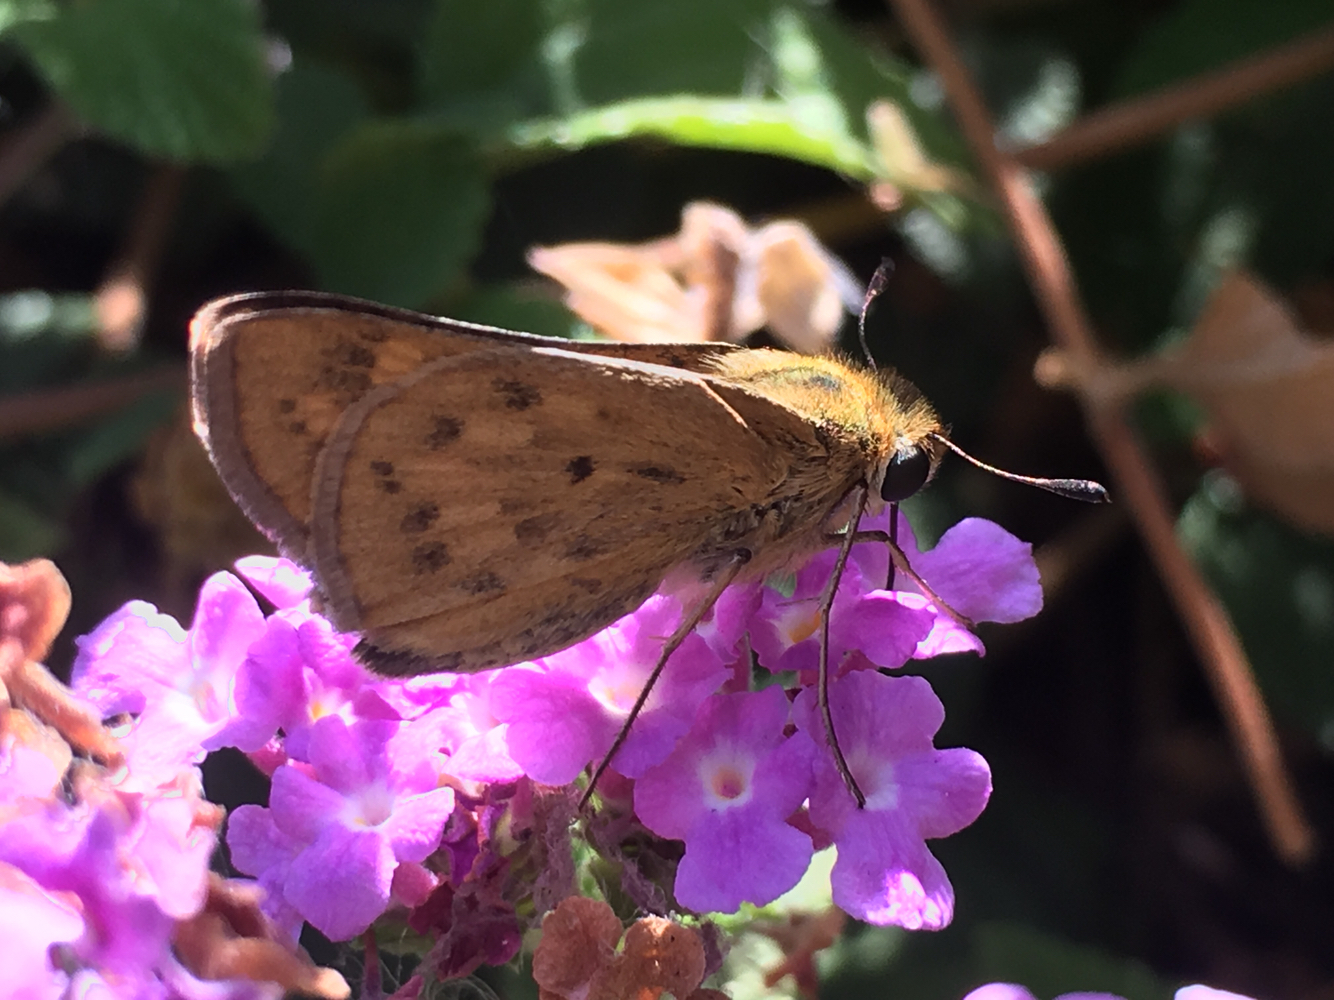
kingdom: Animalia
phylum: Arthropoda
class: Insecta
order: Lepidoptera
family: Hesperiidae
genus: Hylephila
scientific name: Hylephila phyleus
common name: Fiery skipper
